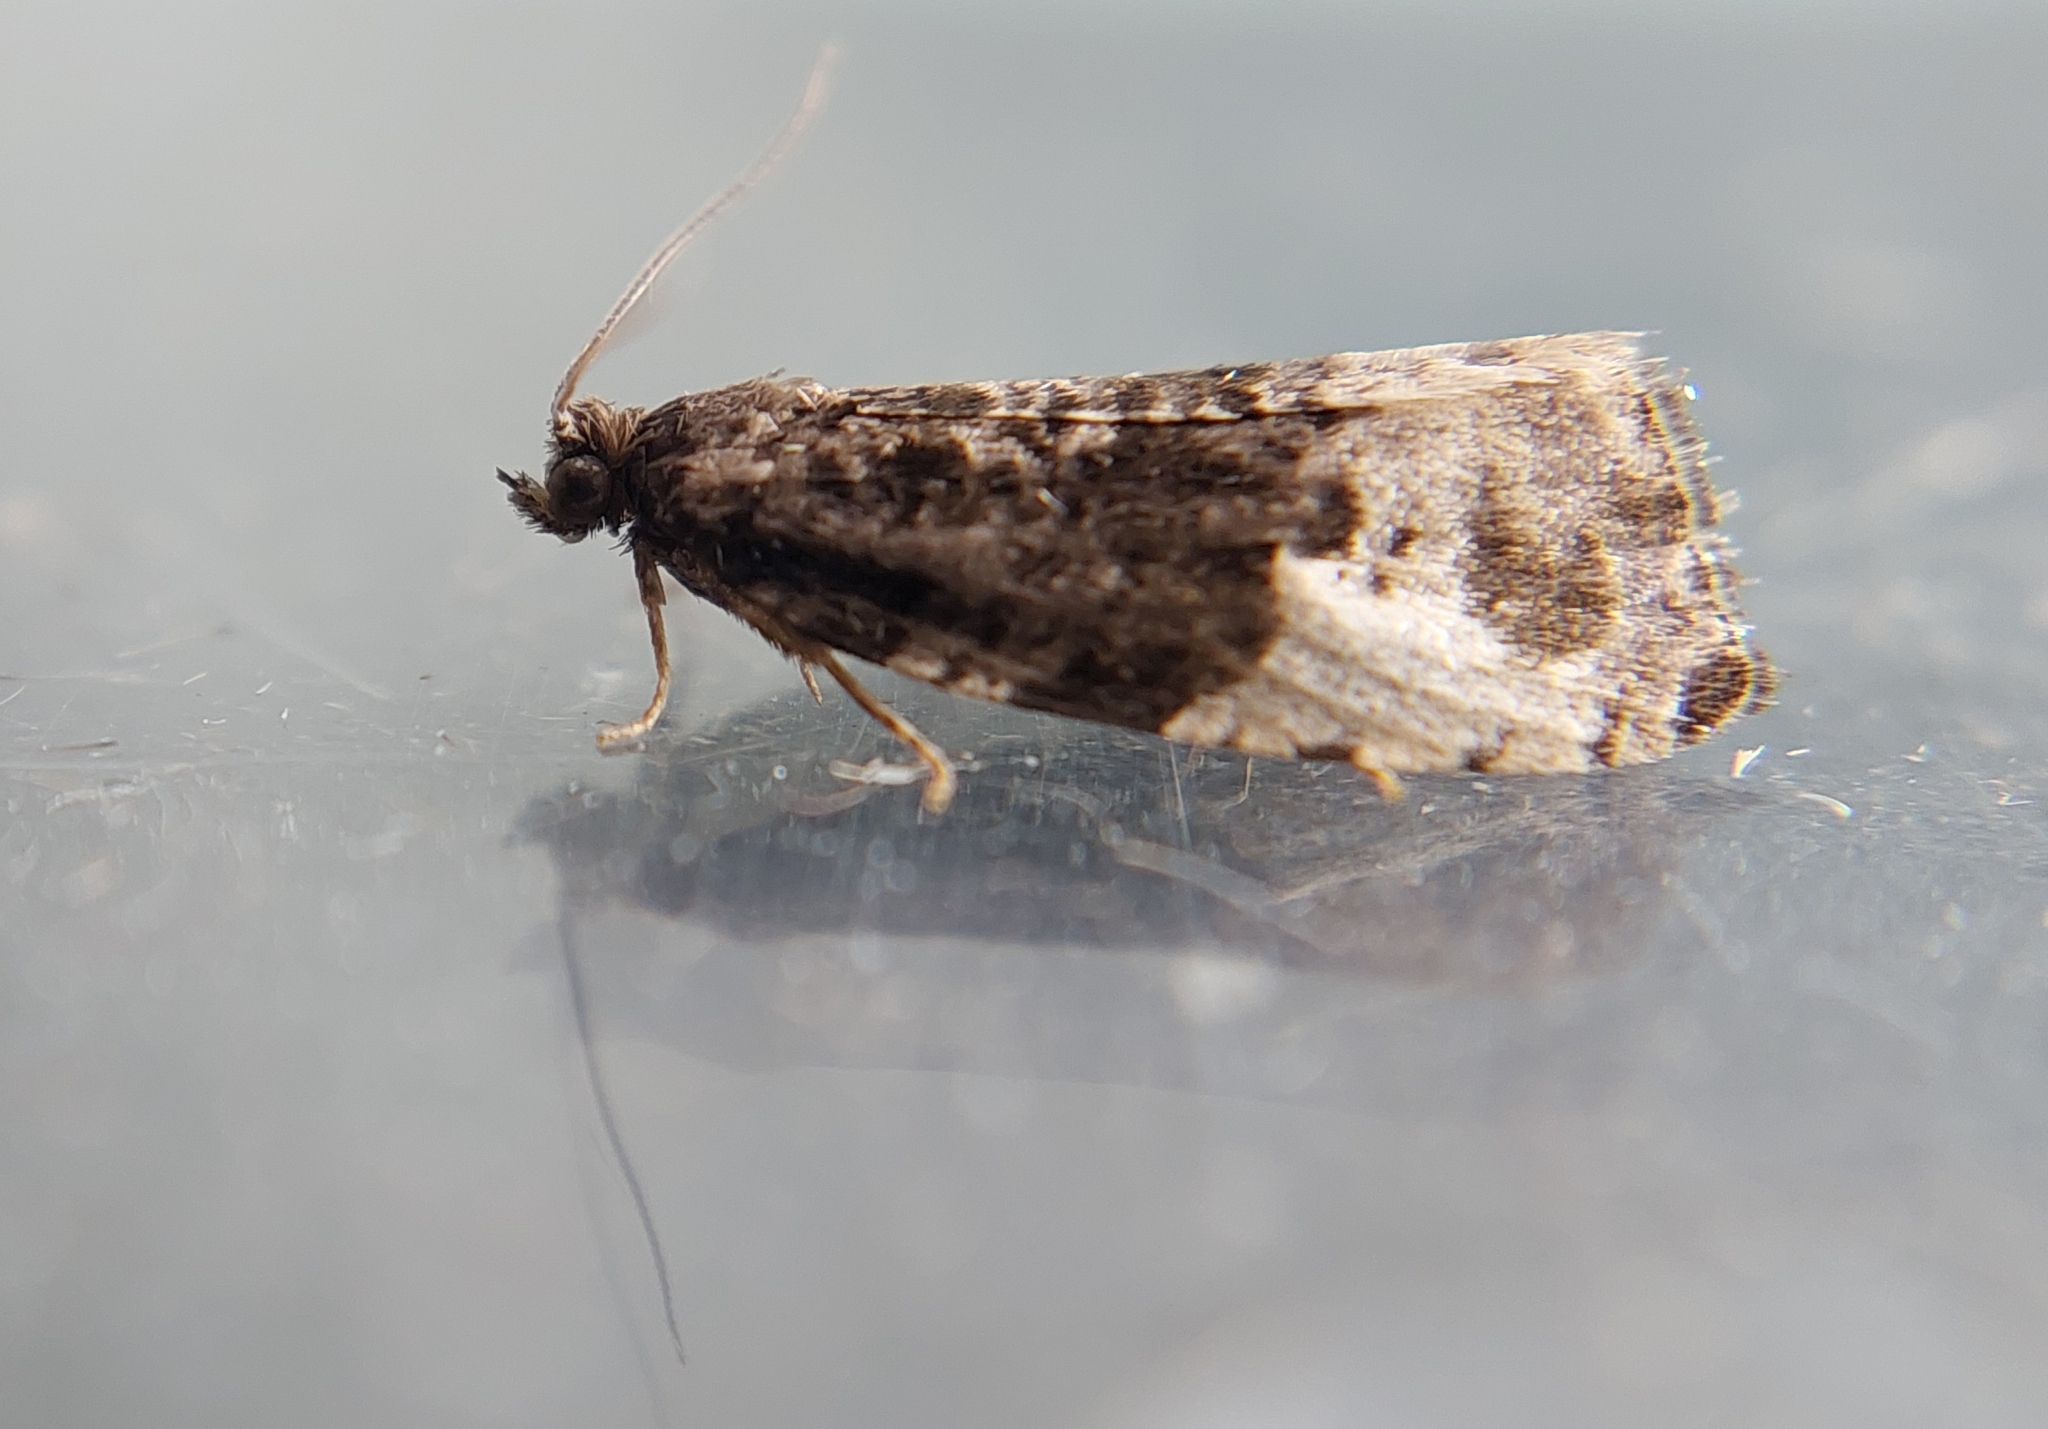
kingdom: Animalia
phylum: Arthropoda
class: Insecta
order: Lepidoptera
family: Tortricidae
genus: Hedya
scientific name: Hedya pruniana
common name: Plum tortrix
